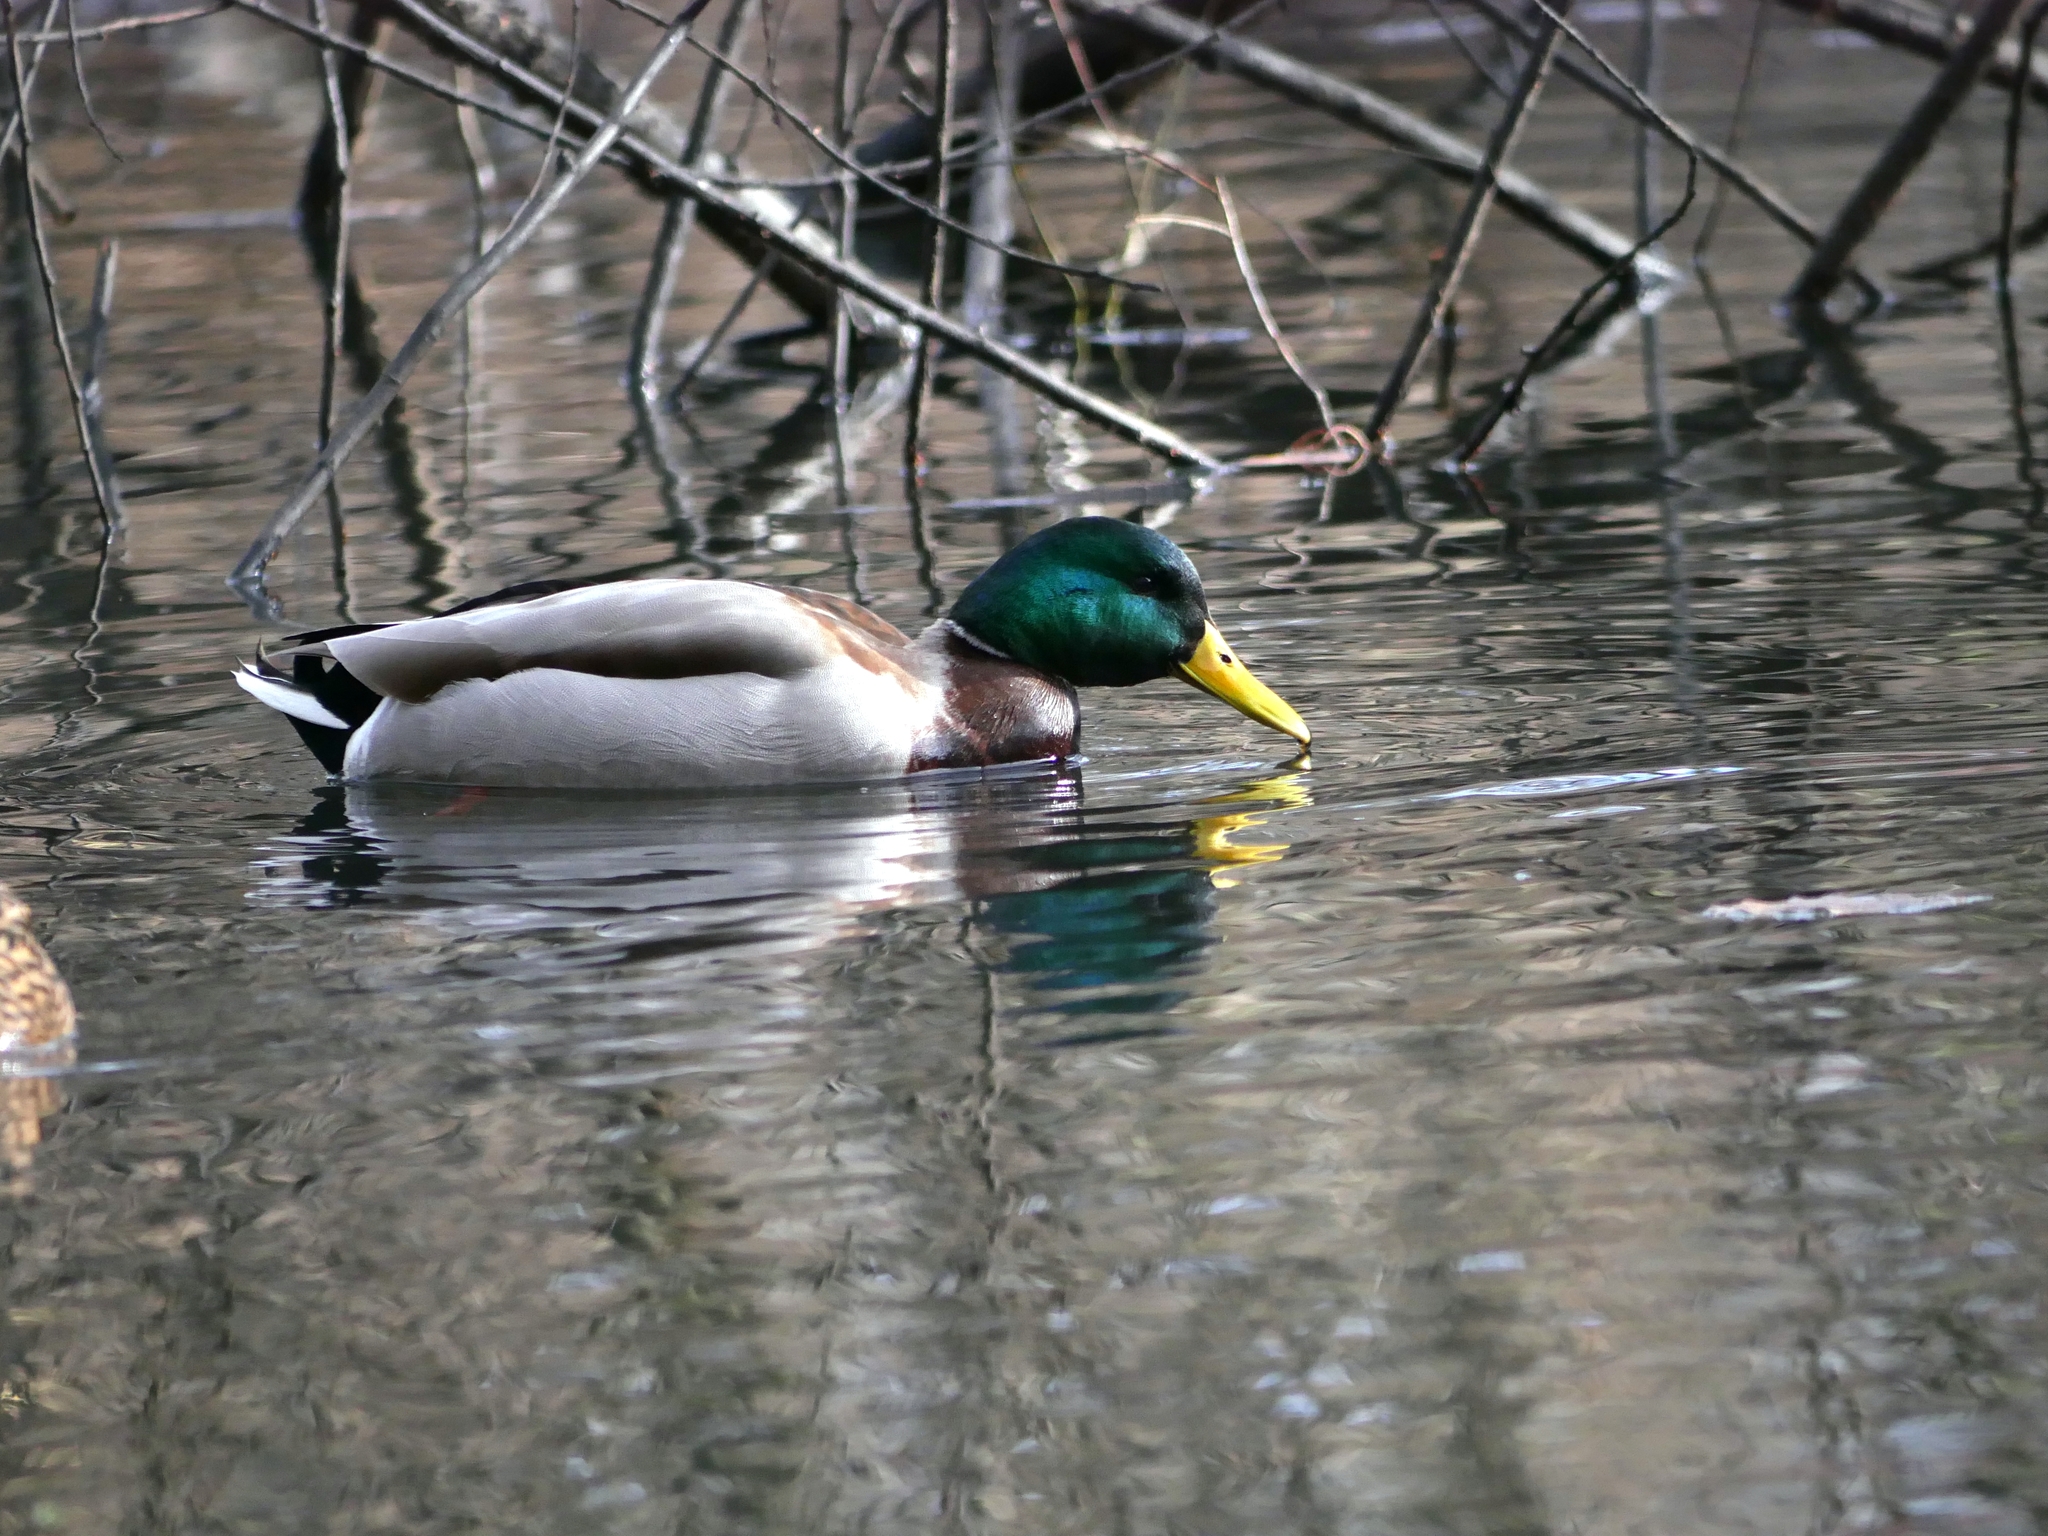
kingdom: Animalia
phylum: Chordata
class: Aves
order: Anseriformes
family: Anatidae
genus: Anas
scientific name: Anas platyrhynchos
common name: Mallard
